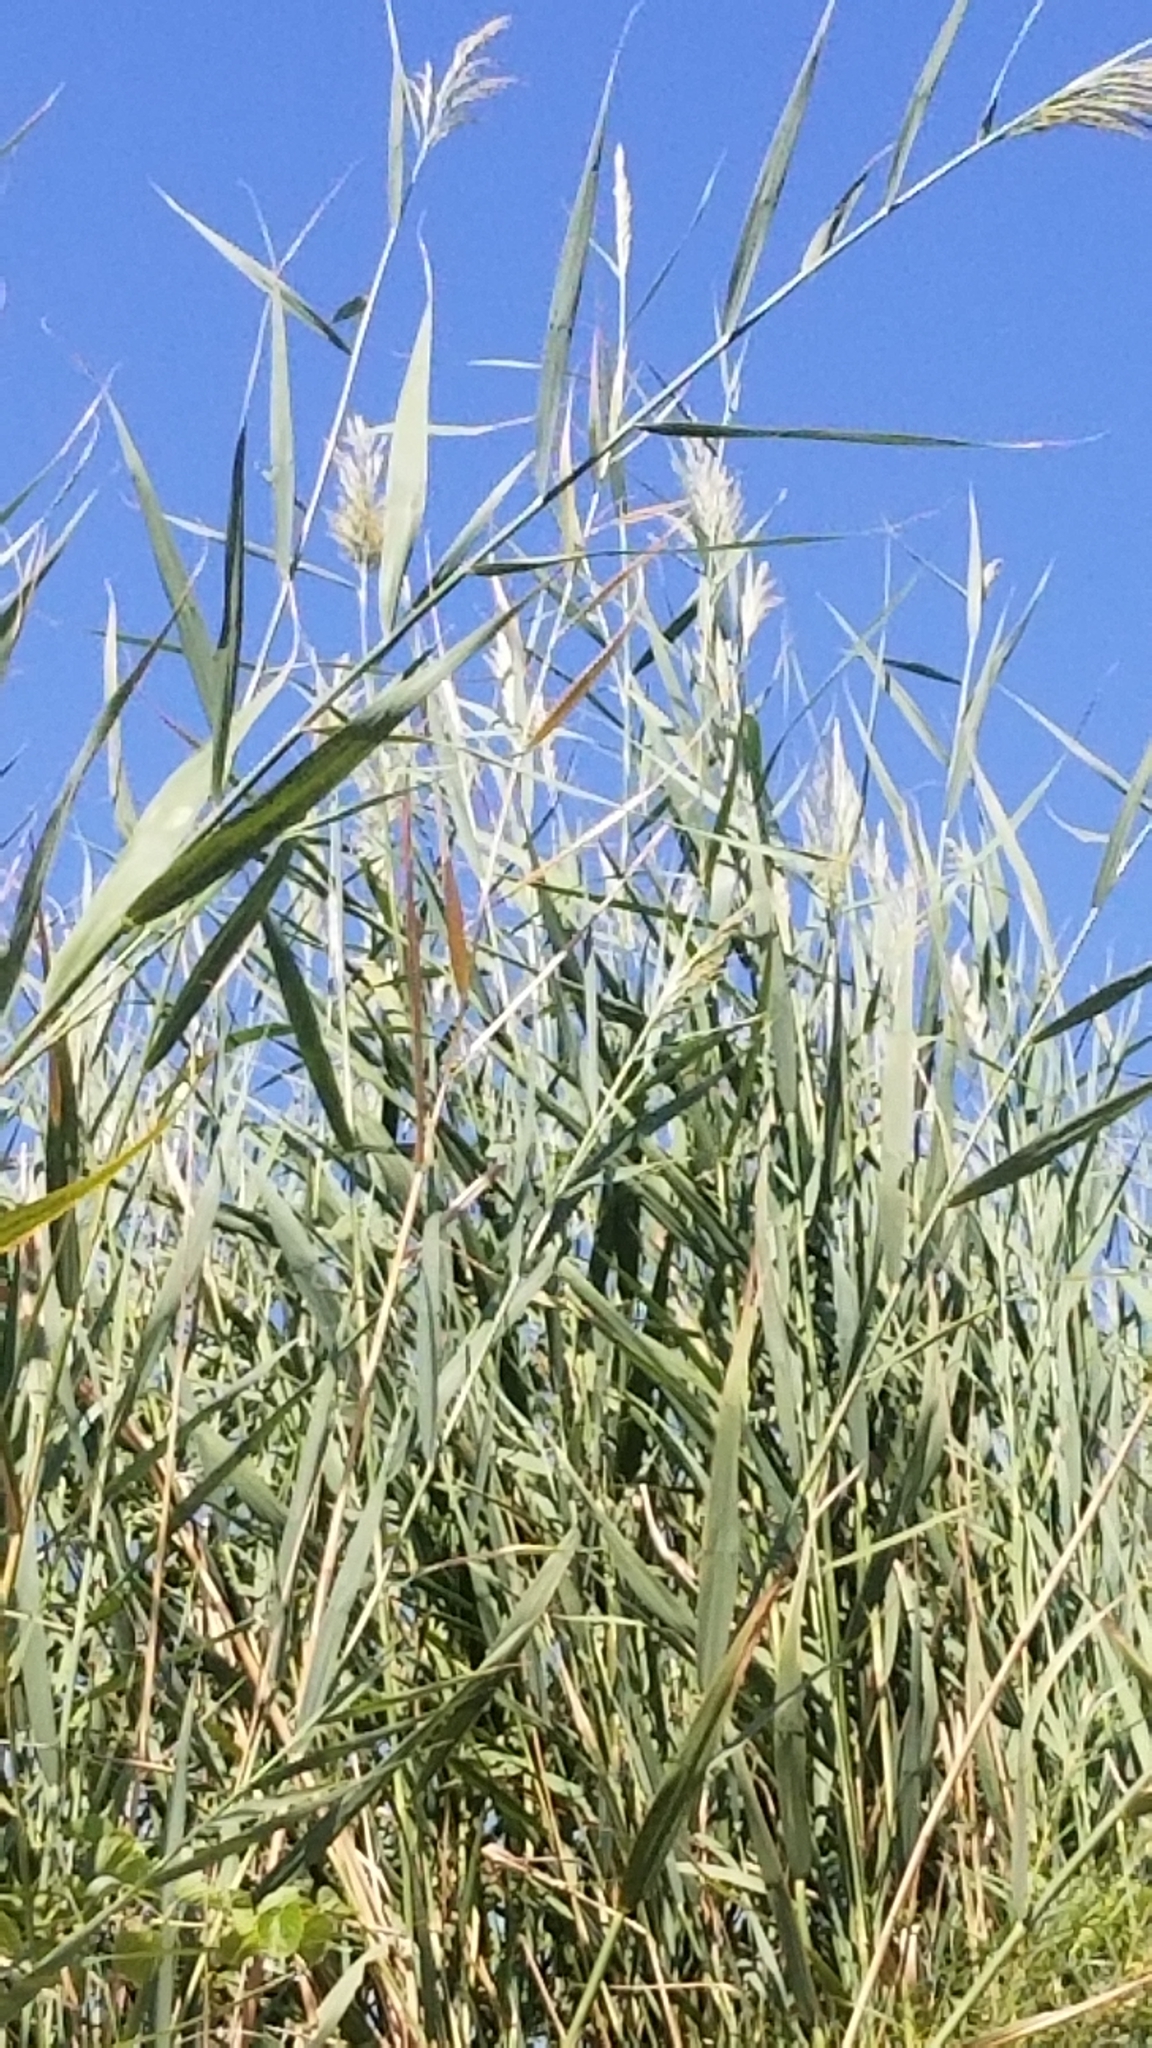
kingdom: Plantae
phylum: Tracheophyta
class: Liliopsida
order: Poales
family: Poaceae
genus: Phragmites
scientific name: Phragmites australis
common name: Common reed
